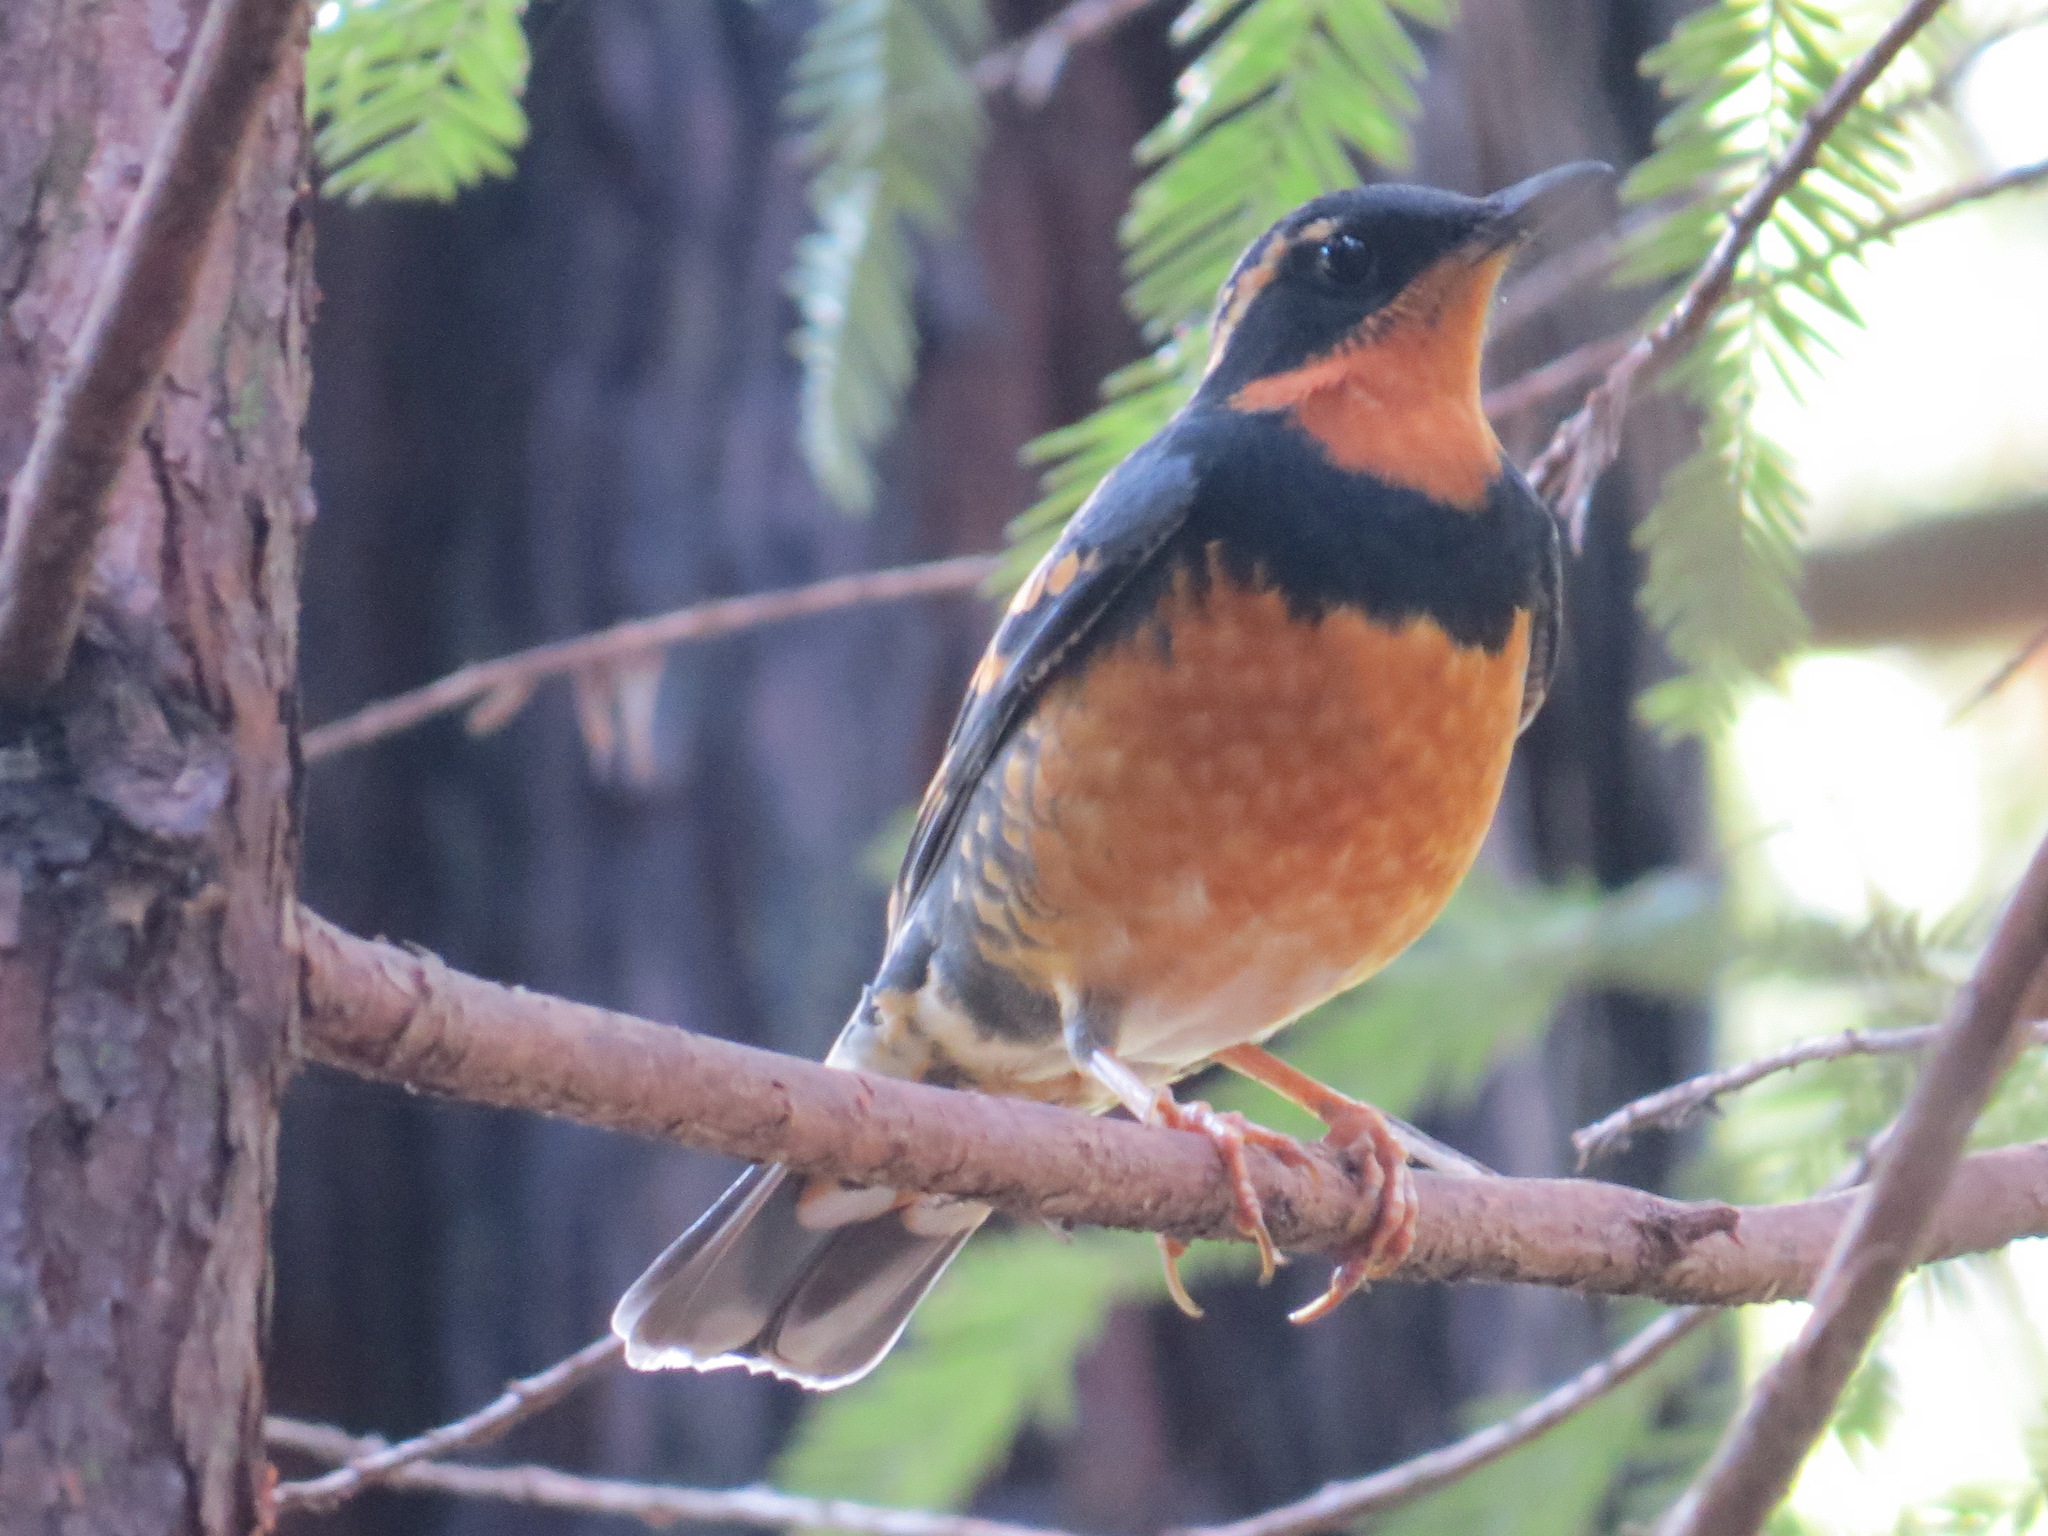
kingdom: Animalia
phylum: Chordata
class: Aves
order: Passeriformes
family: Turdidae
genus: Ixoreus
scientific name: Ixoreus naevius
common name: Varied thrush
